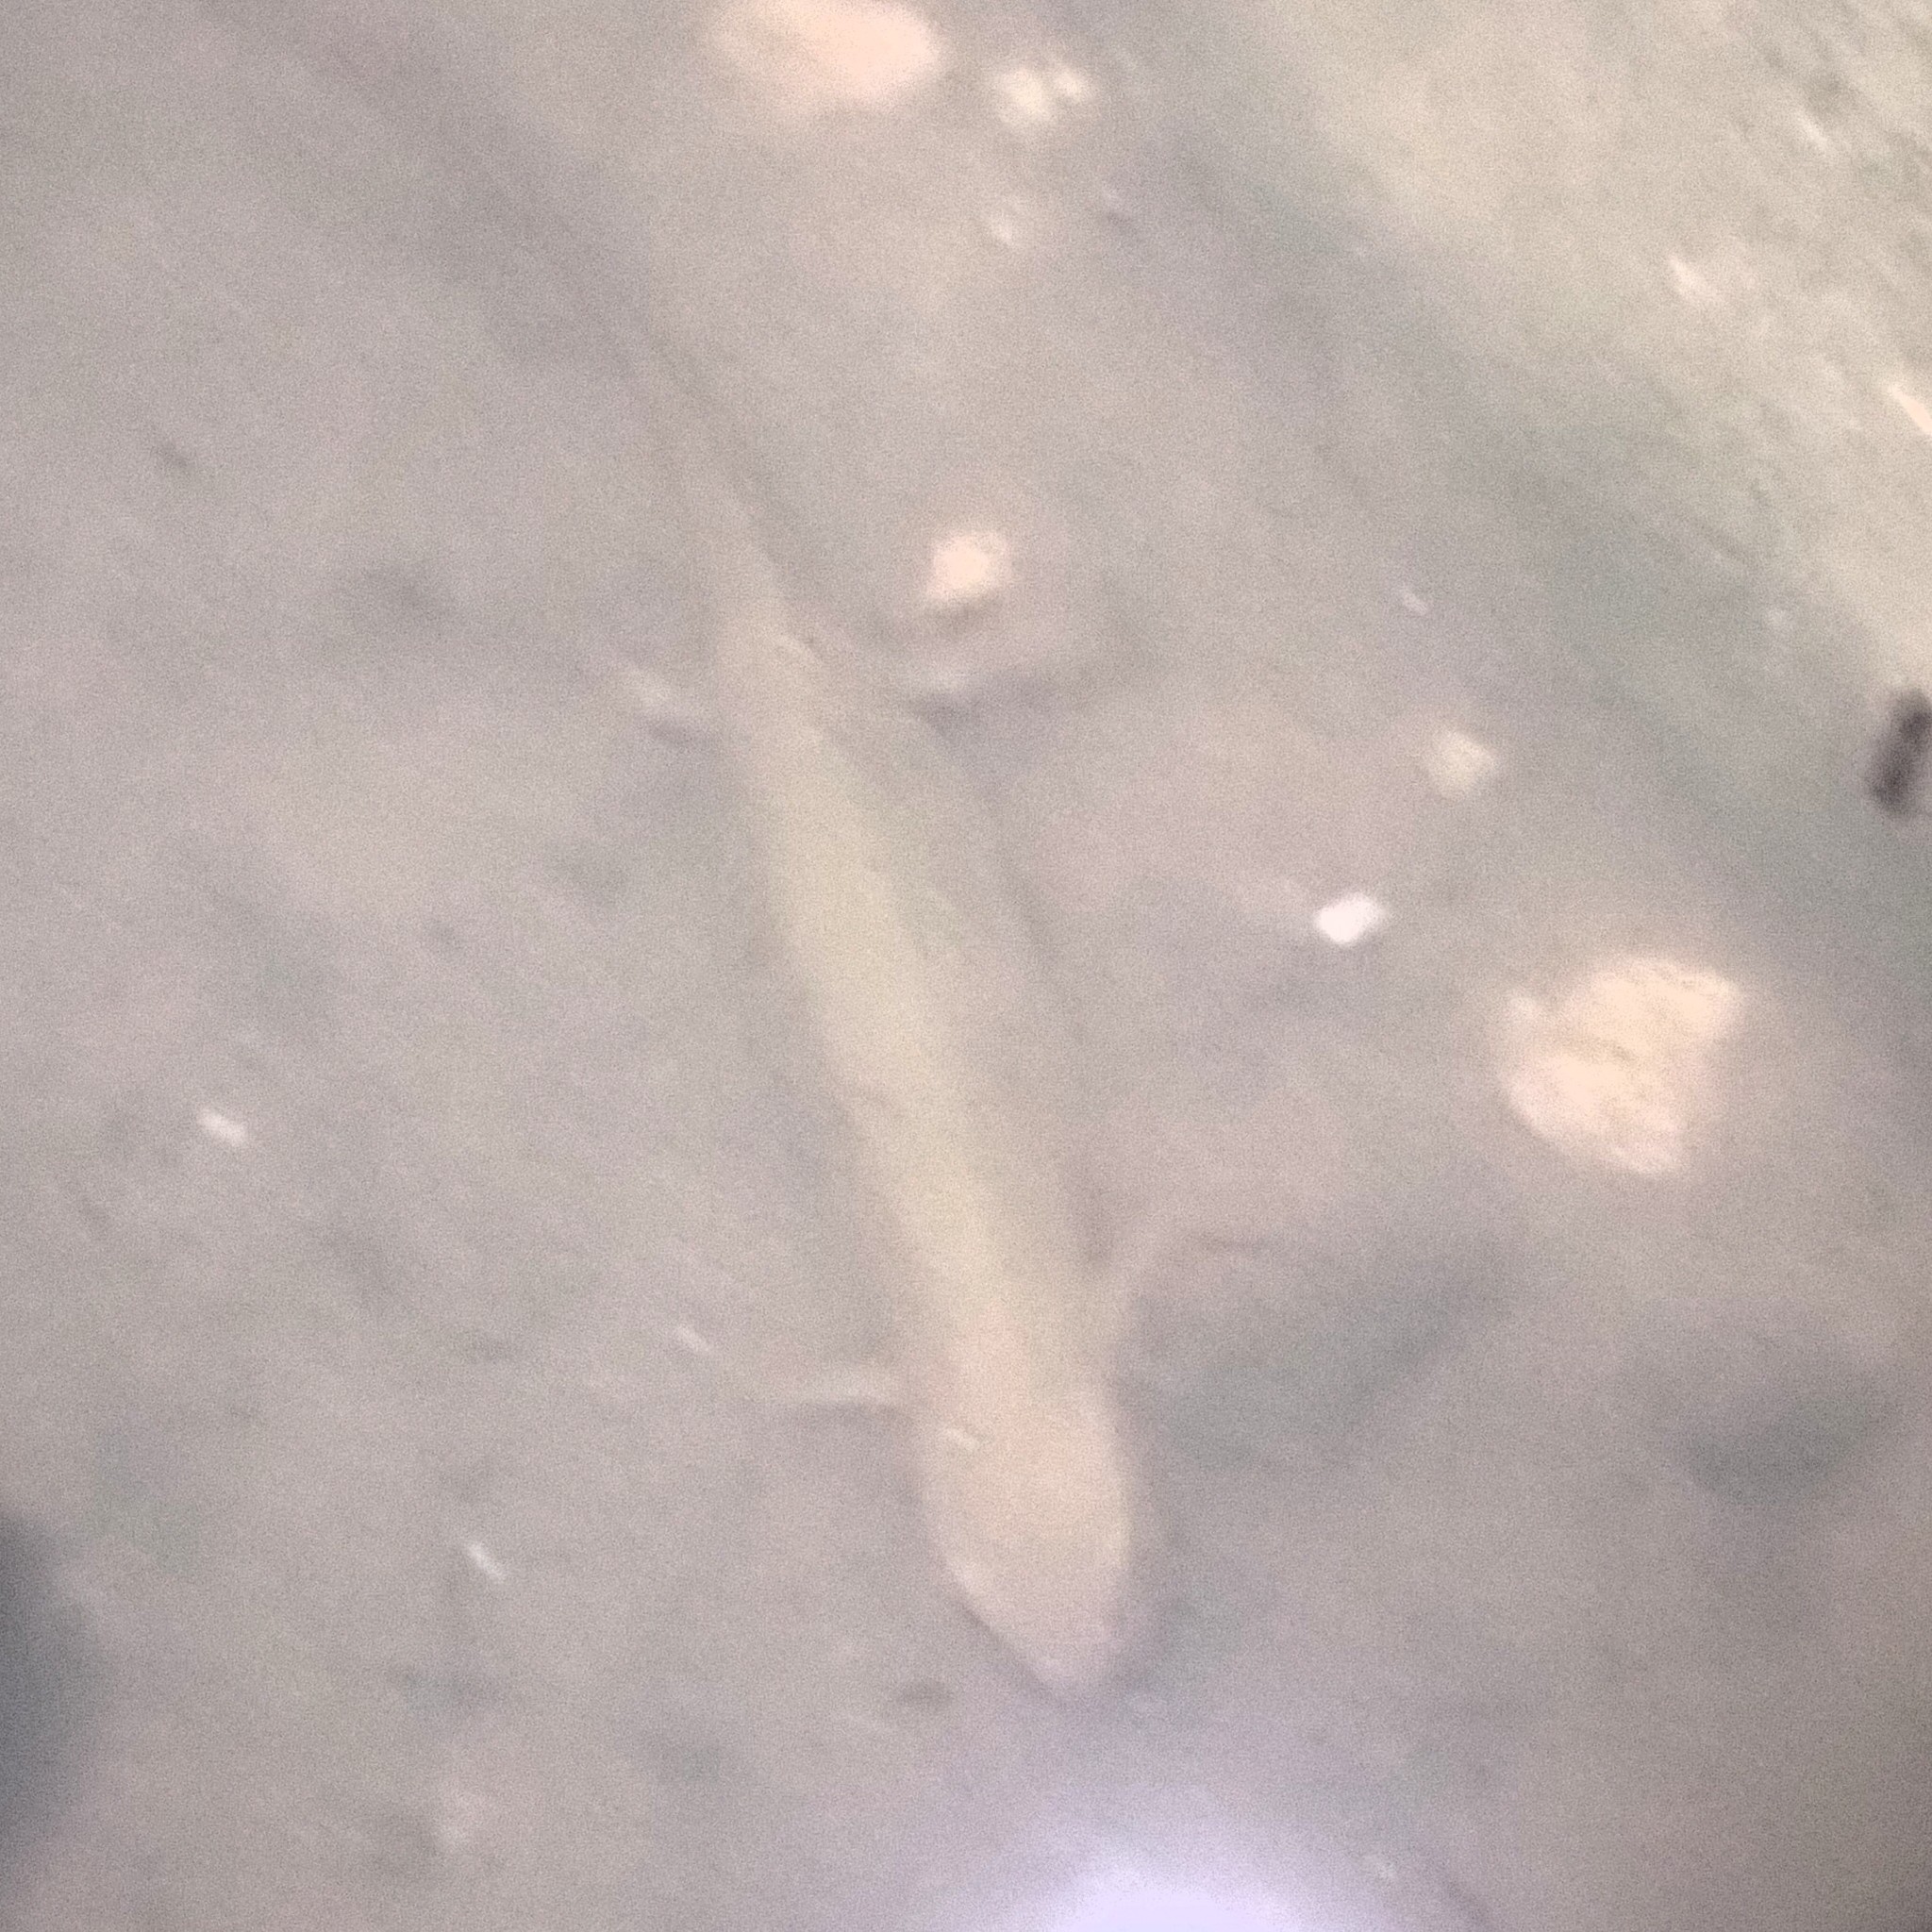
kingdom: Animalia
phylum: Chordata
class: Amphibia
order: Caudata
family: Salamandridae
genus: Lissotriton
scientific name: Lissotriton helveticus
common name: Palmate newt
